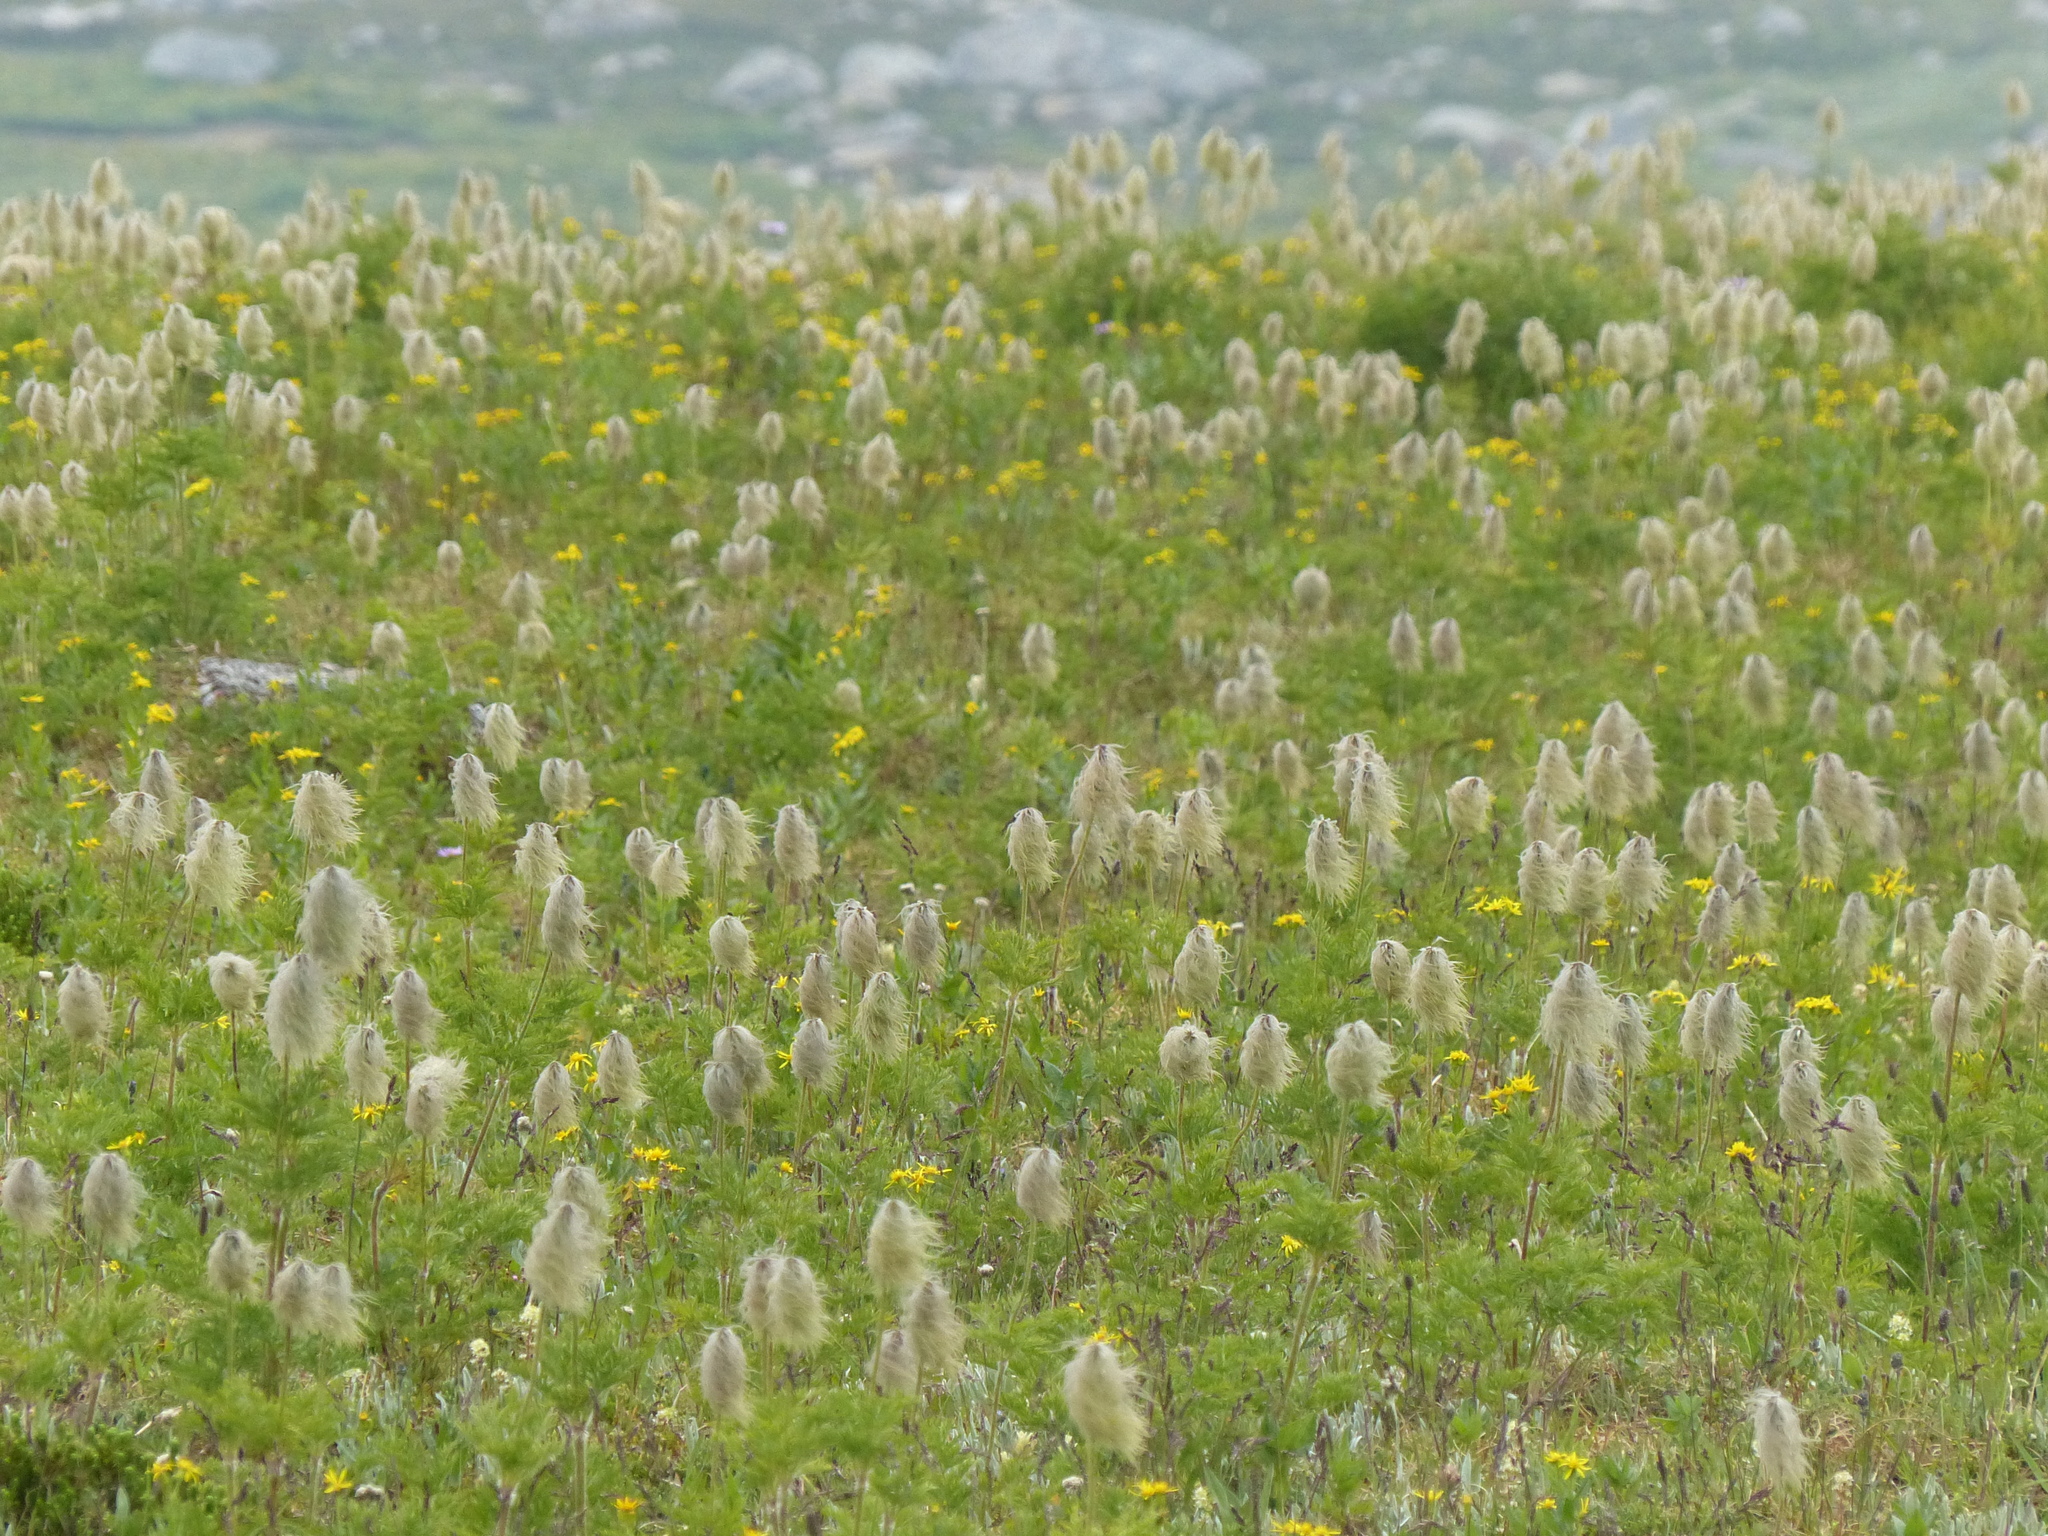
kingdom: Plantae
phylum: Tracheophyta
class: Magnoliopsida
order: Ranunculales
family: Ranunculaceae
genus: Pulsatilla
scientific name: Pulsatilla occidentalis
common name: Mountain pasqueflower
